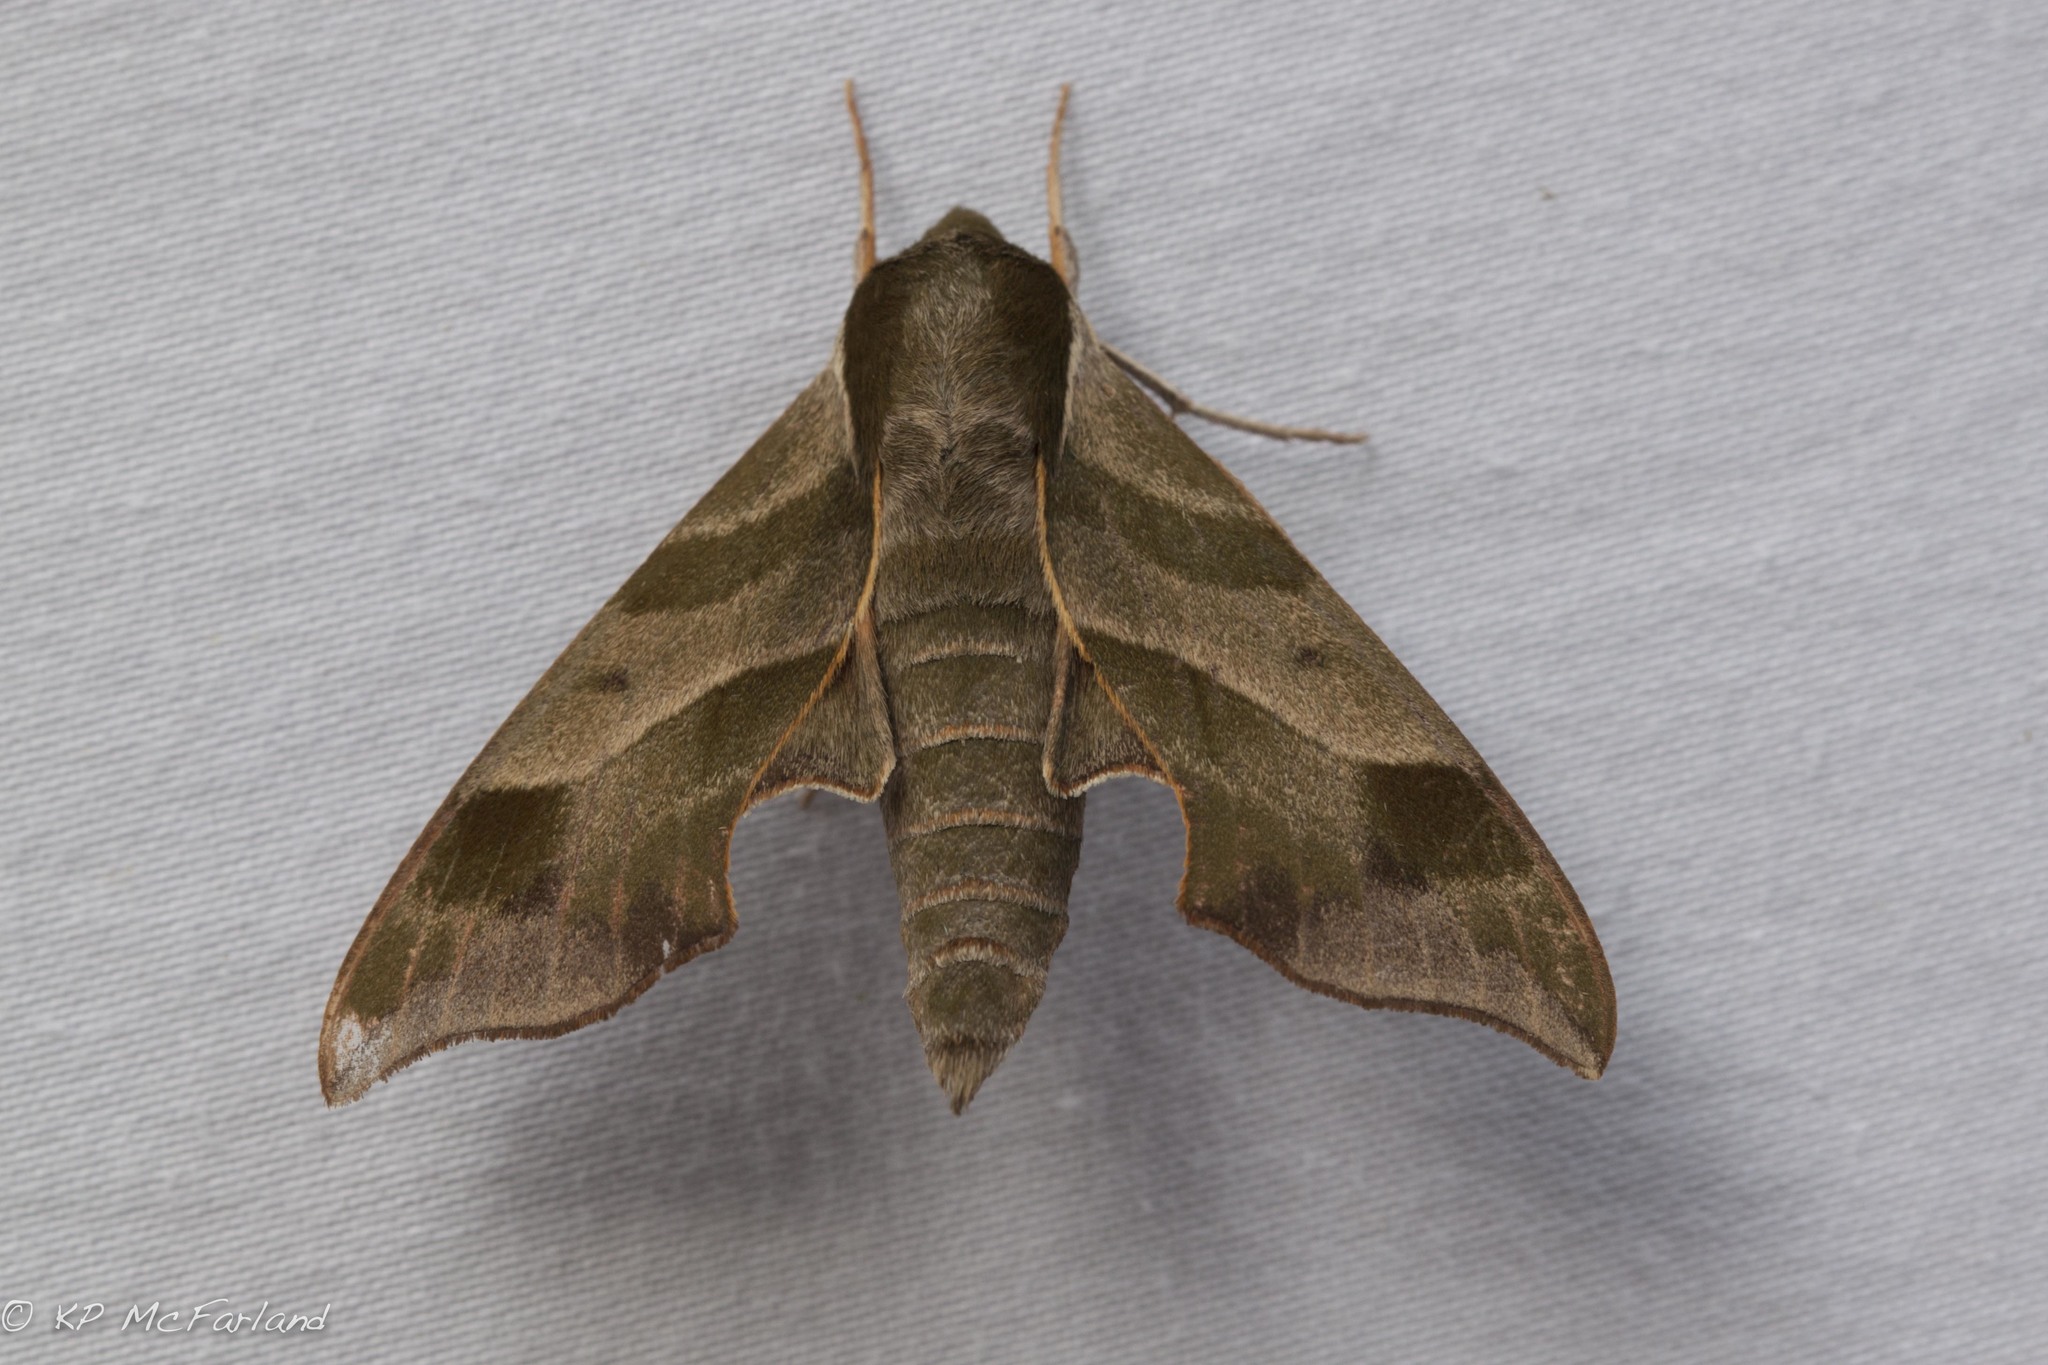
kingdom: Animalia
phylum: Arthropoda
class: Insecta
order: Lepidoptera
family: Sphingidae
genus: Darapsa
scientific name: Darapsa myron
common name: Hog sphinx
